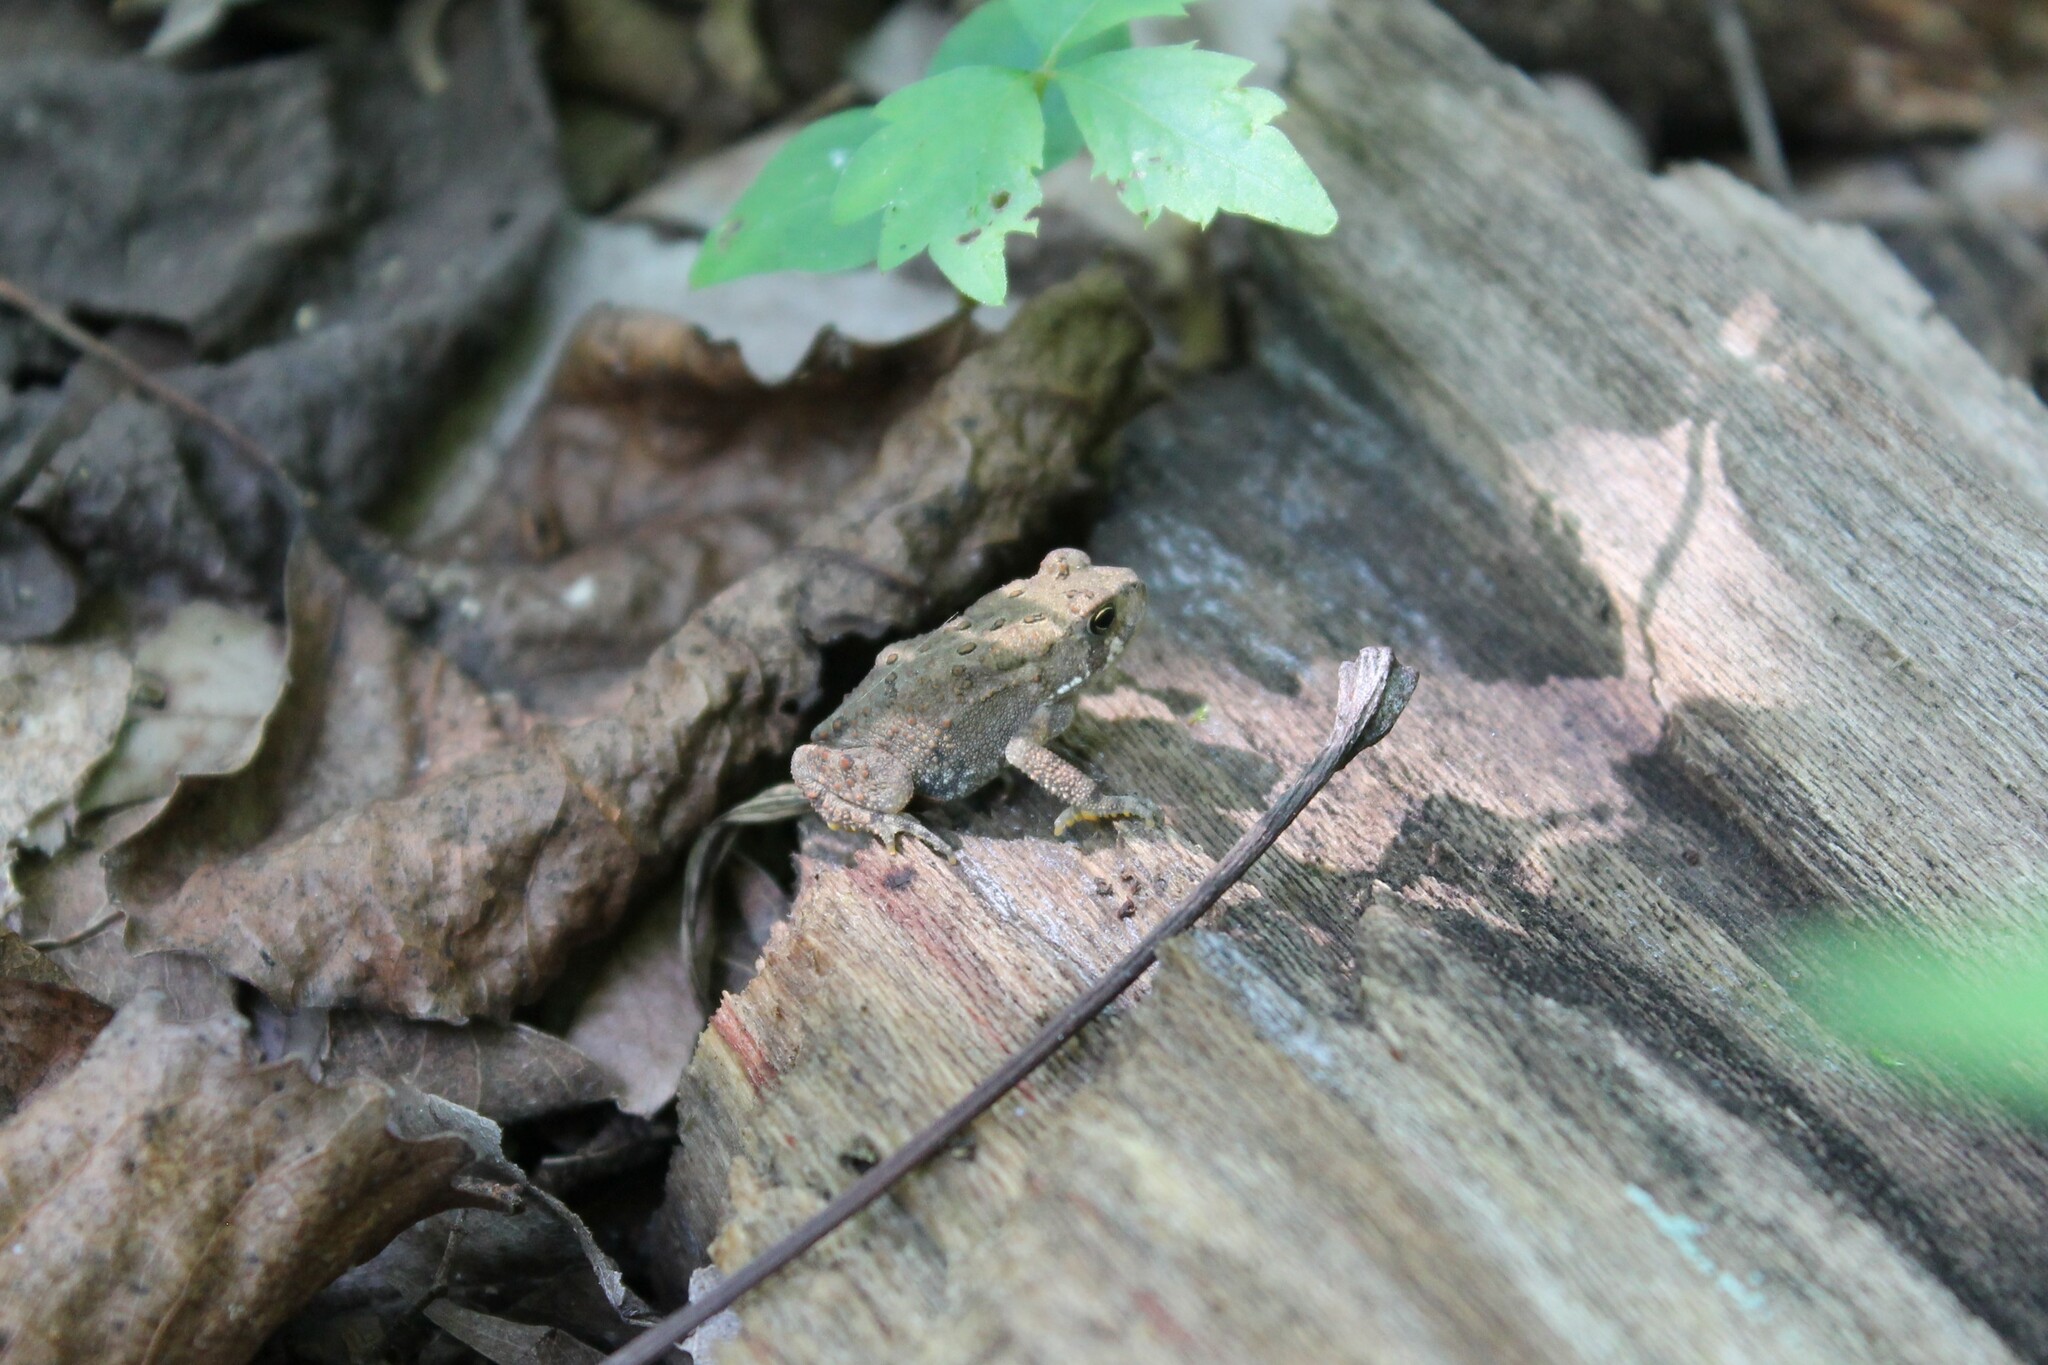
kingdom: Animalia
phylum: Chordata
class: Amphibia
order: Anura
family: Bufonidae
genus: Anaxyrus
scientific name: Anaxyrus americanus
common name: American toad
